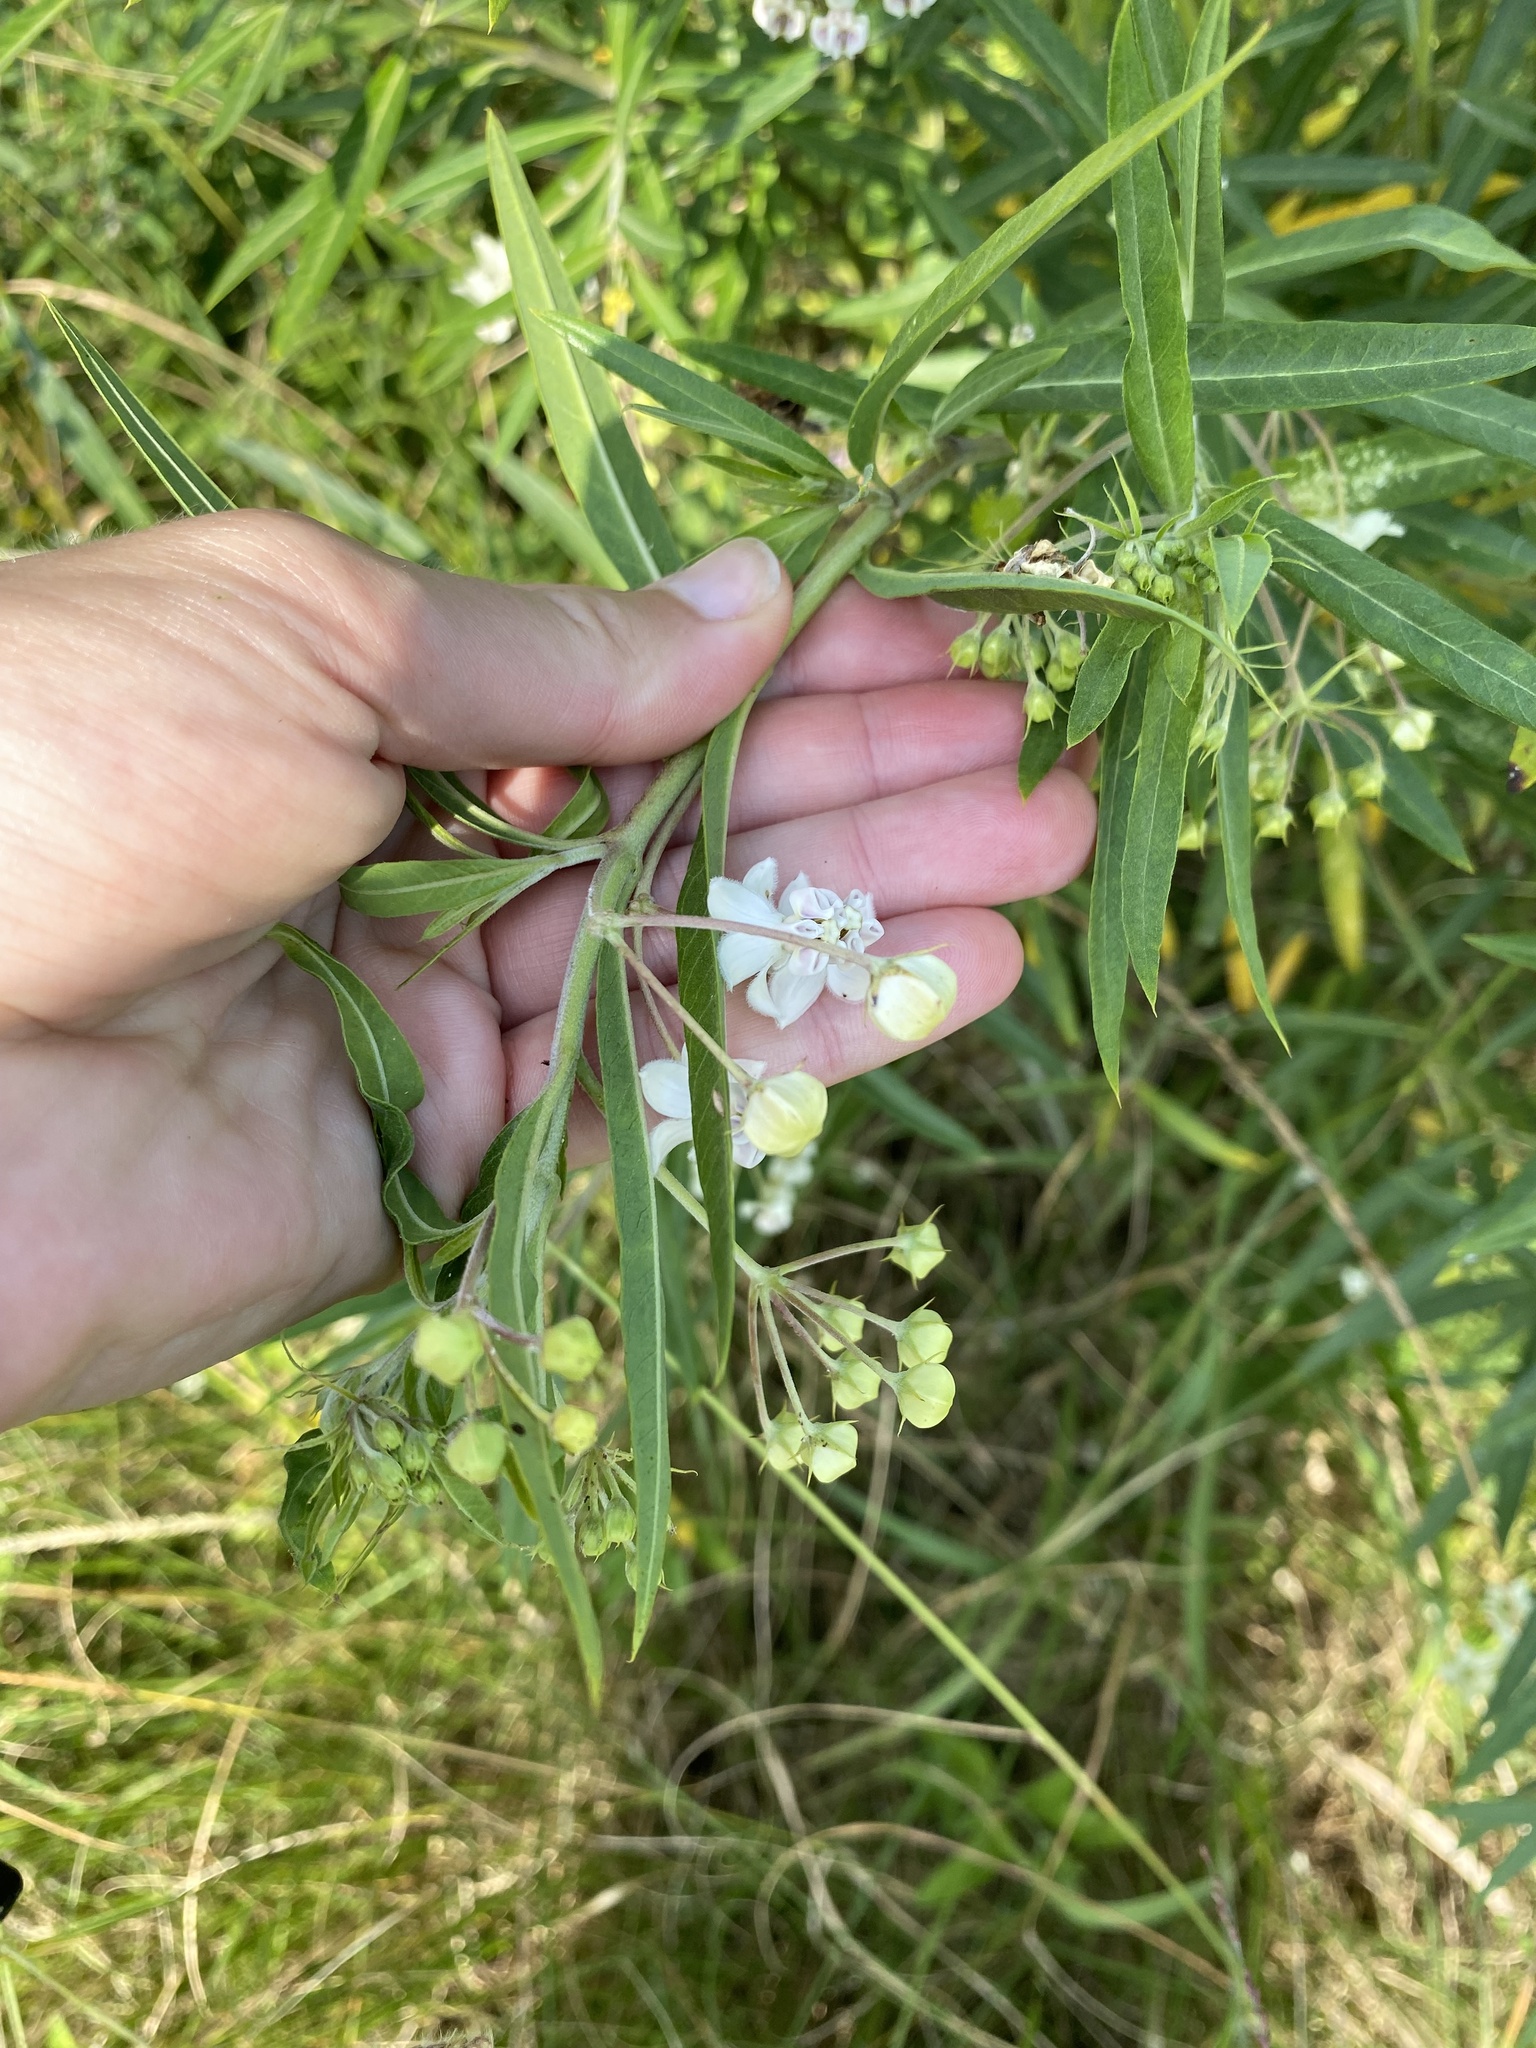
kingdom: Plantae
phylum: Tracheophyta
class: Magnoliopsida
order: Gentianales
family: Apocynaceae
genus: Gomphocarpus
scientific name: Gomphocarpus physocarpus
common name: Balloon cotton bush
